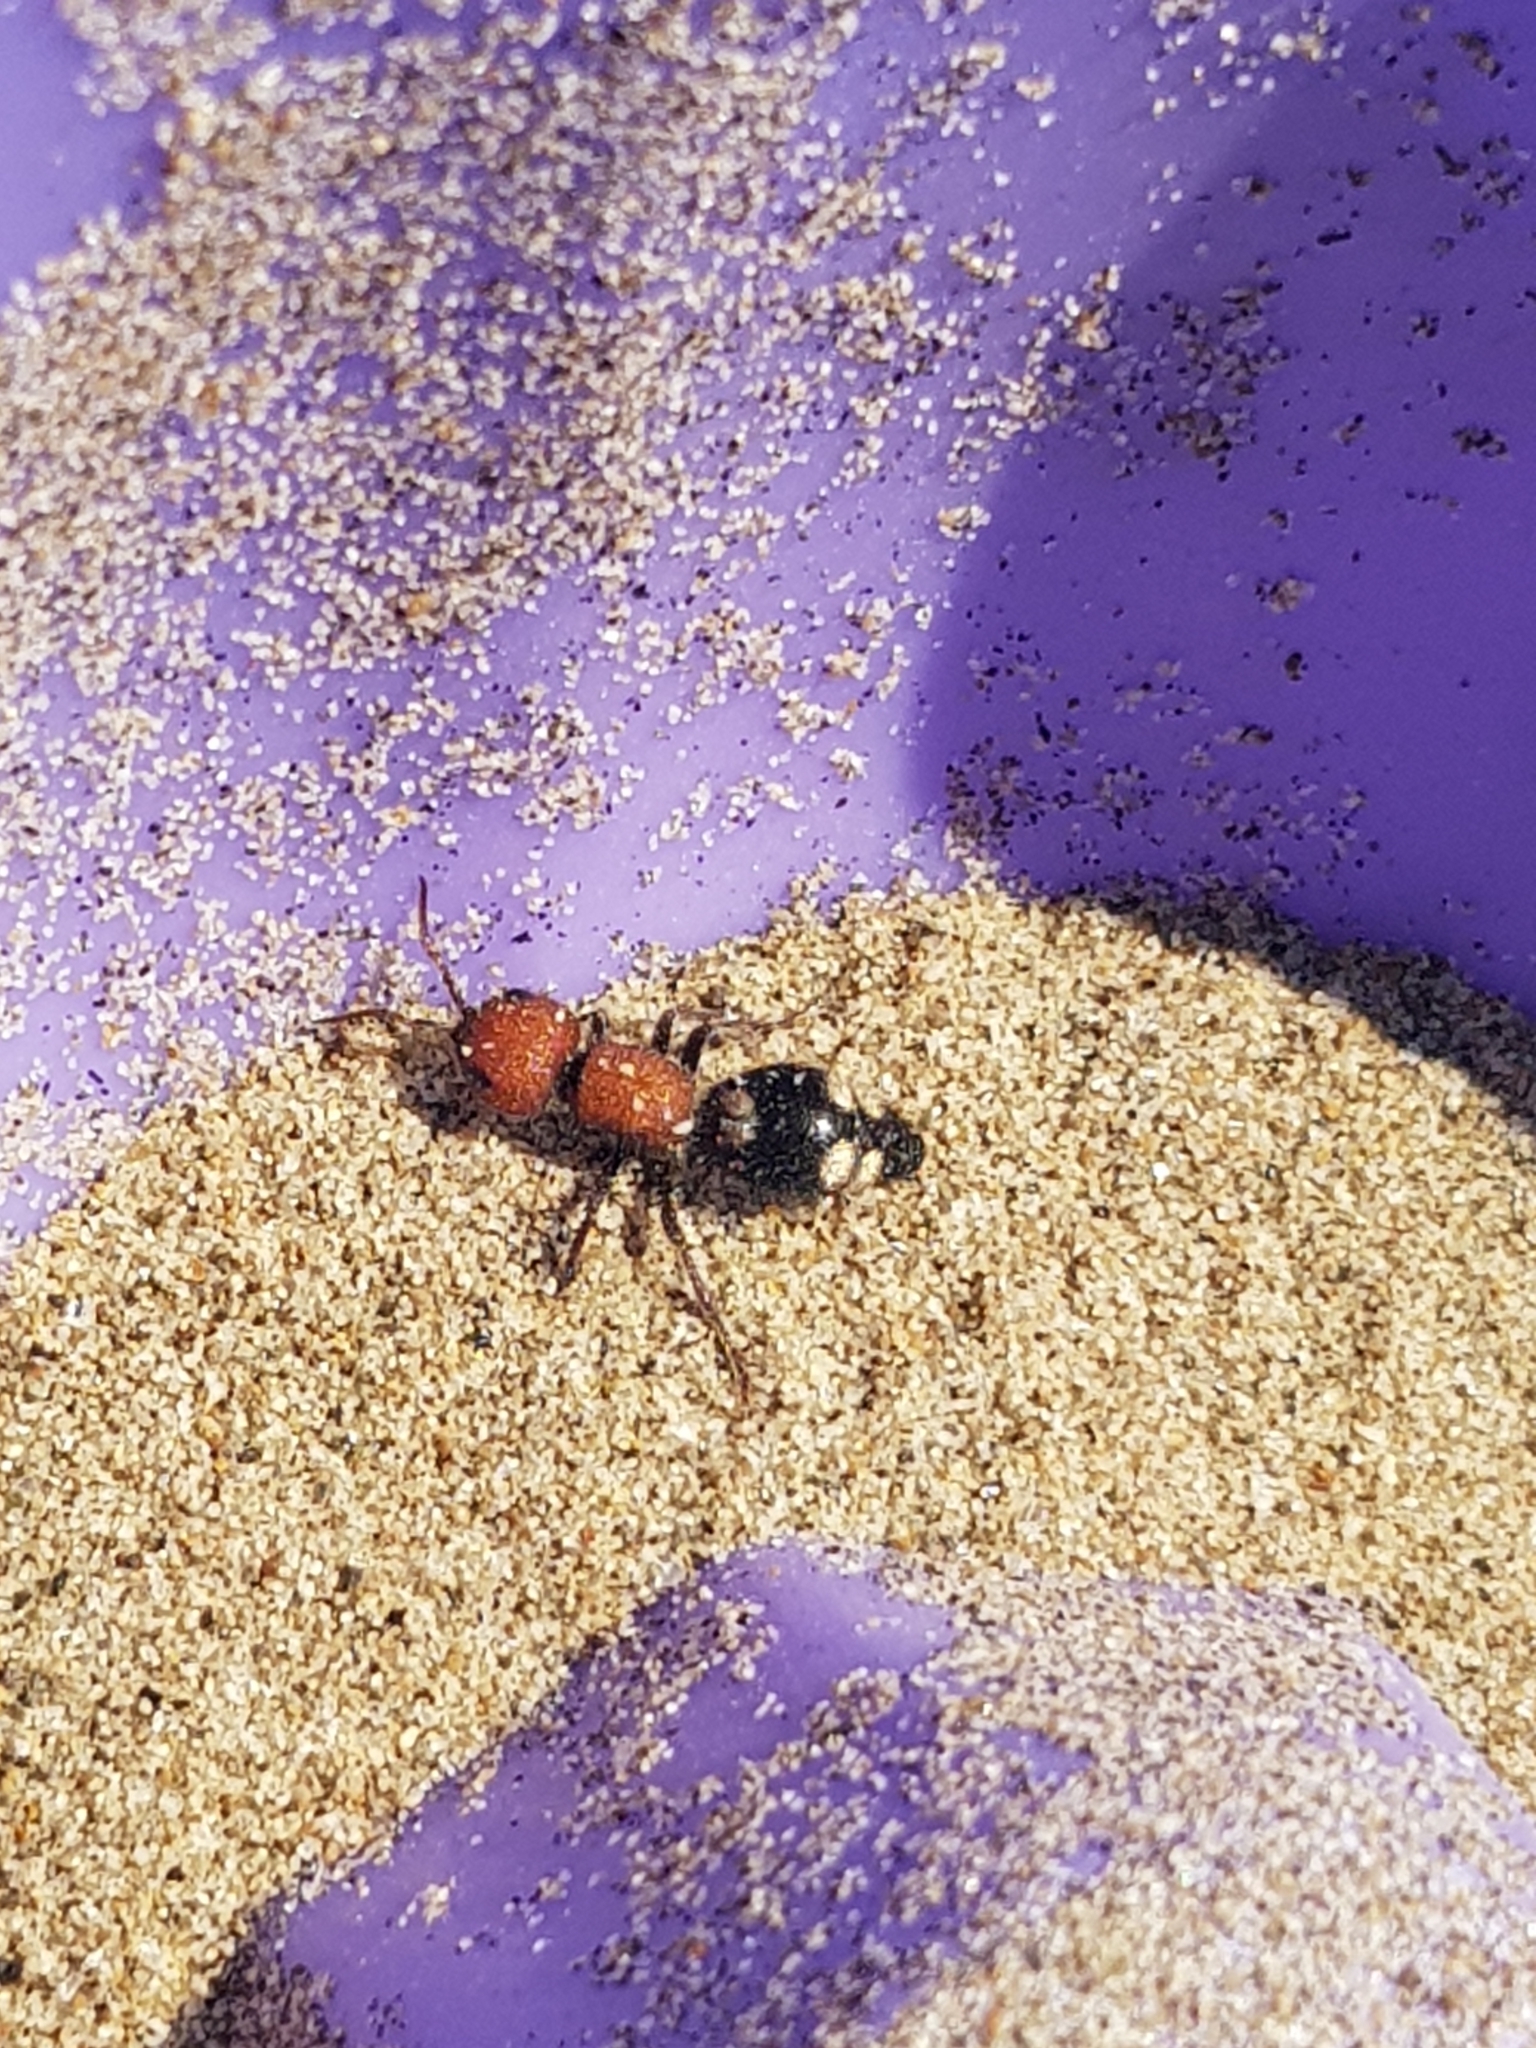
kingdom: Animalia
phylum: Arthropoda
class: Insecta
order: Hymenoptera
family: Mutillidae
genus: Mutilla
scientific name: Mutilla quinquemaculata
